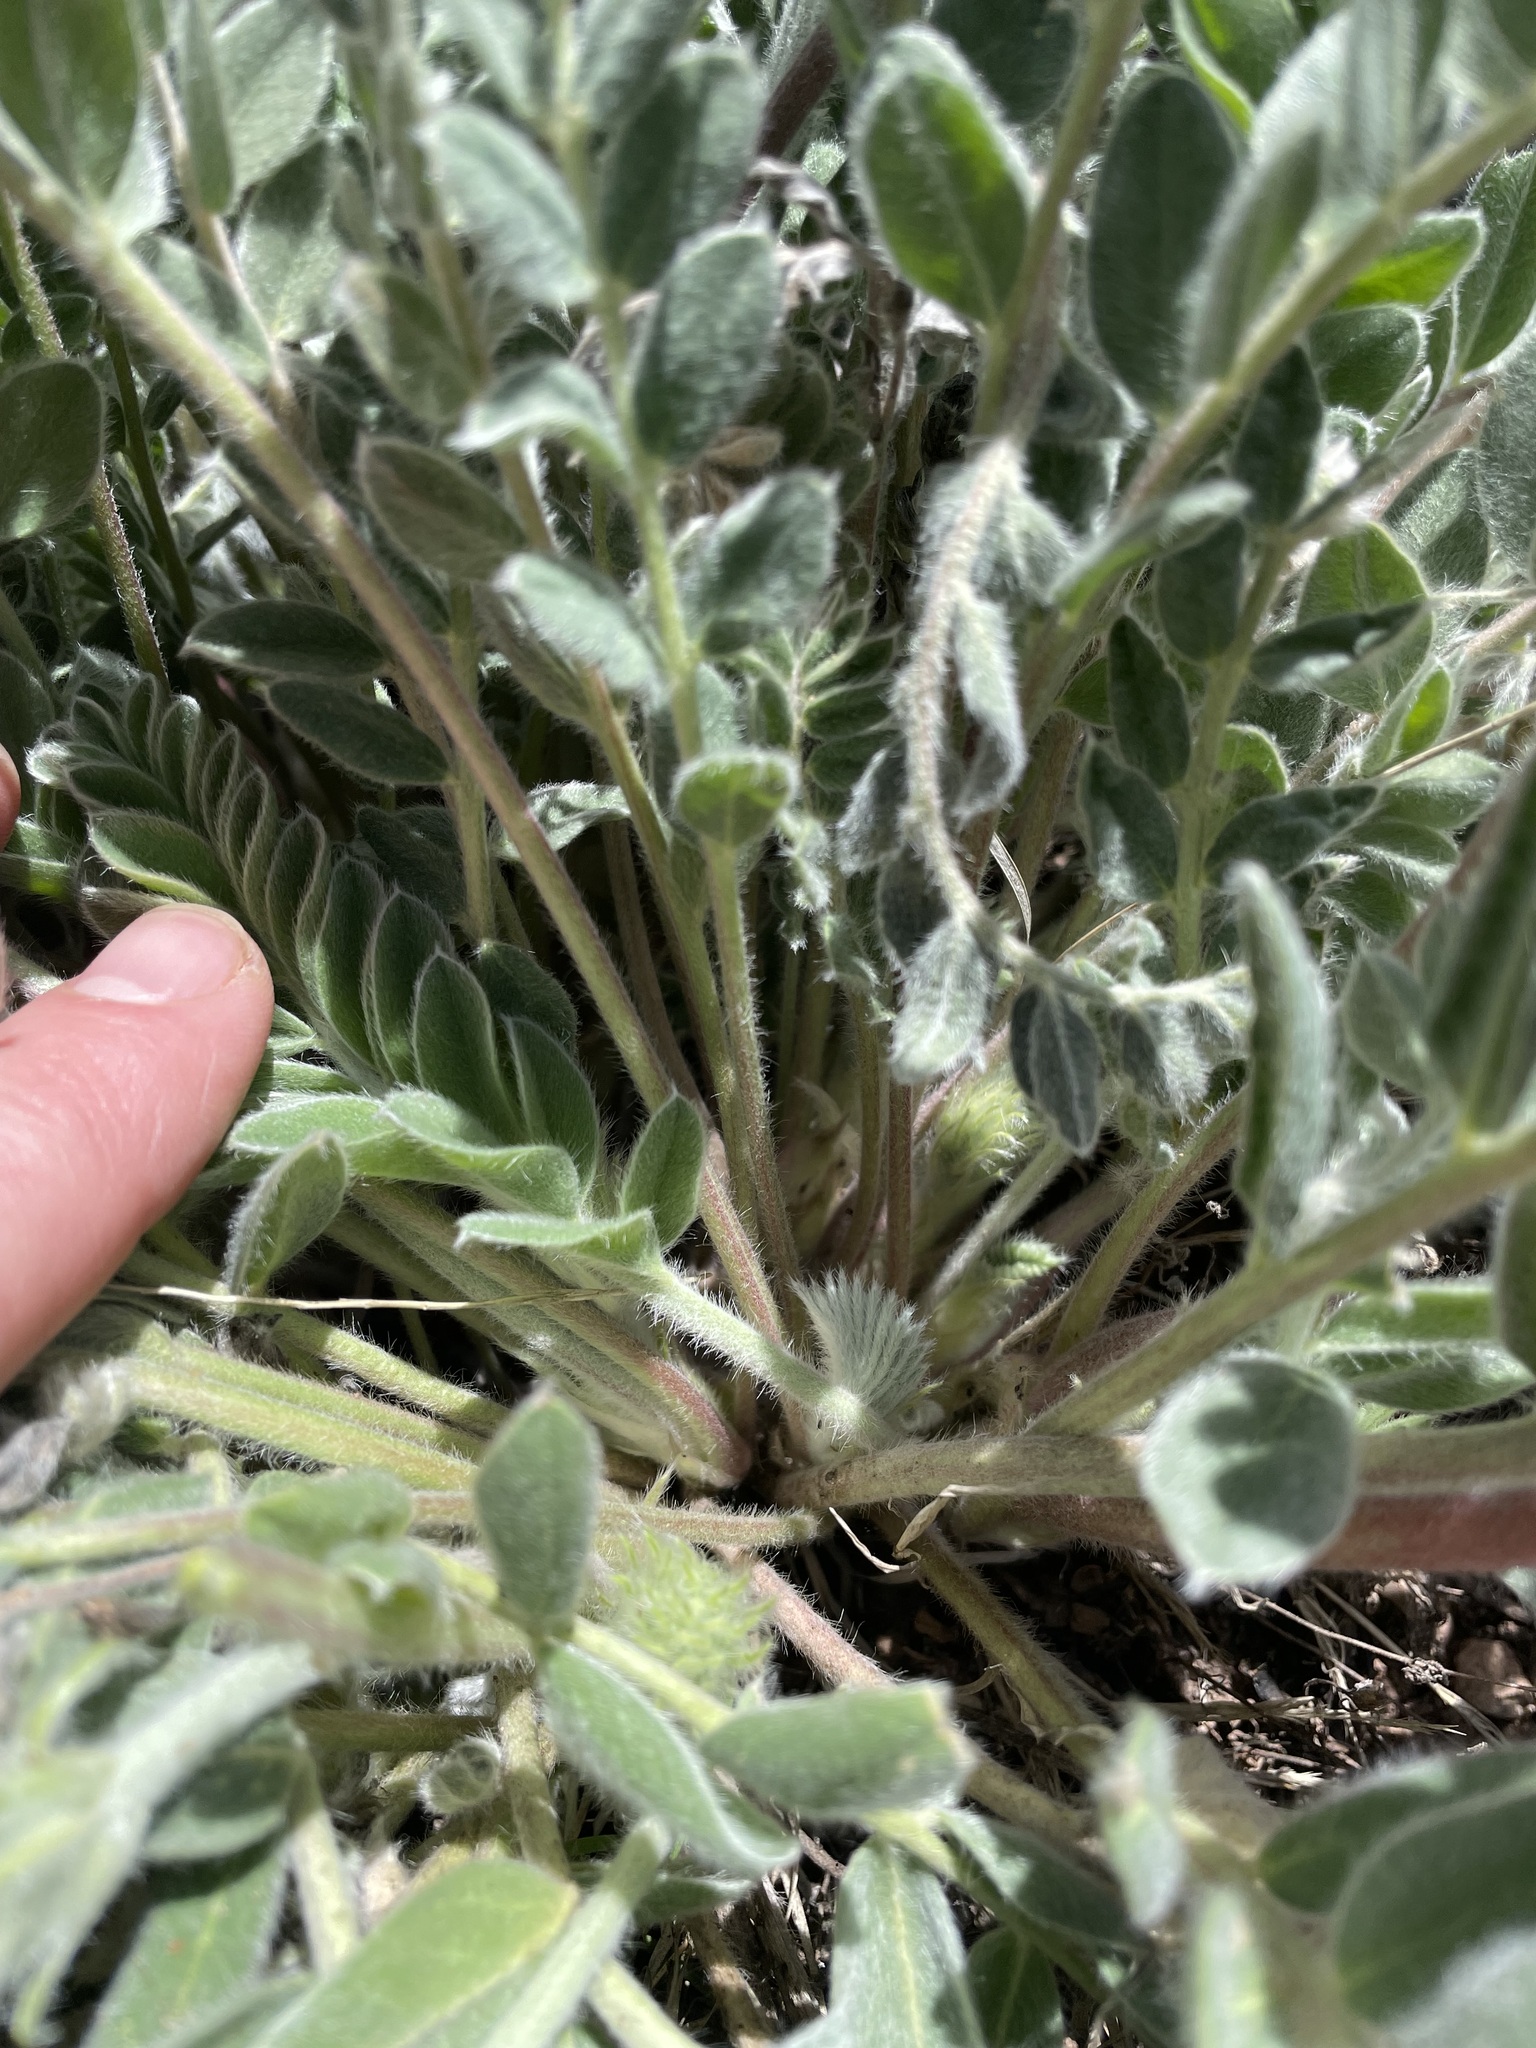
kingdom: Plantae
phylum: Tracheophyta
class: Magnoliopsida
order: Fabales
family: Fabaceae
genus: Astragalus
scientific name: Astragalus mollissimus
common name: Woolly locoweed
